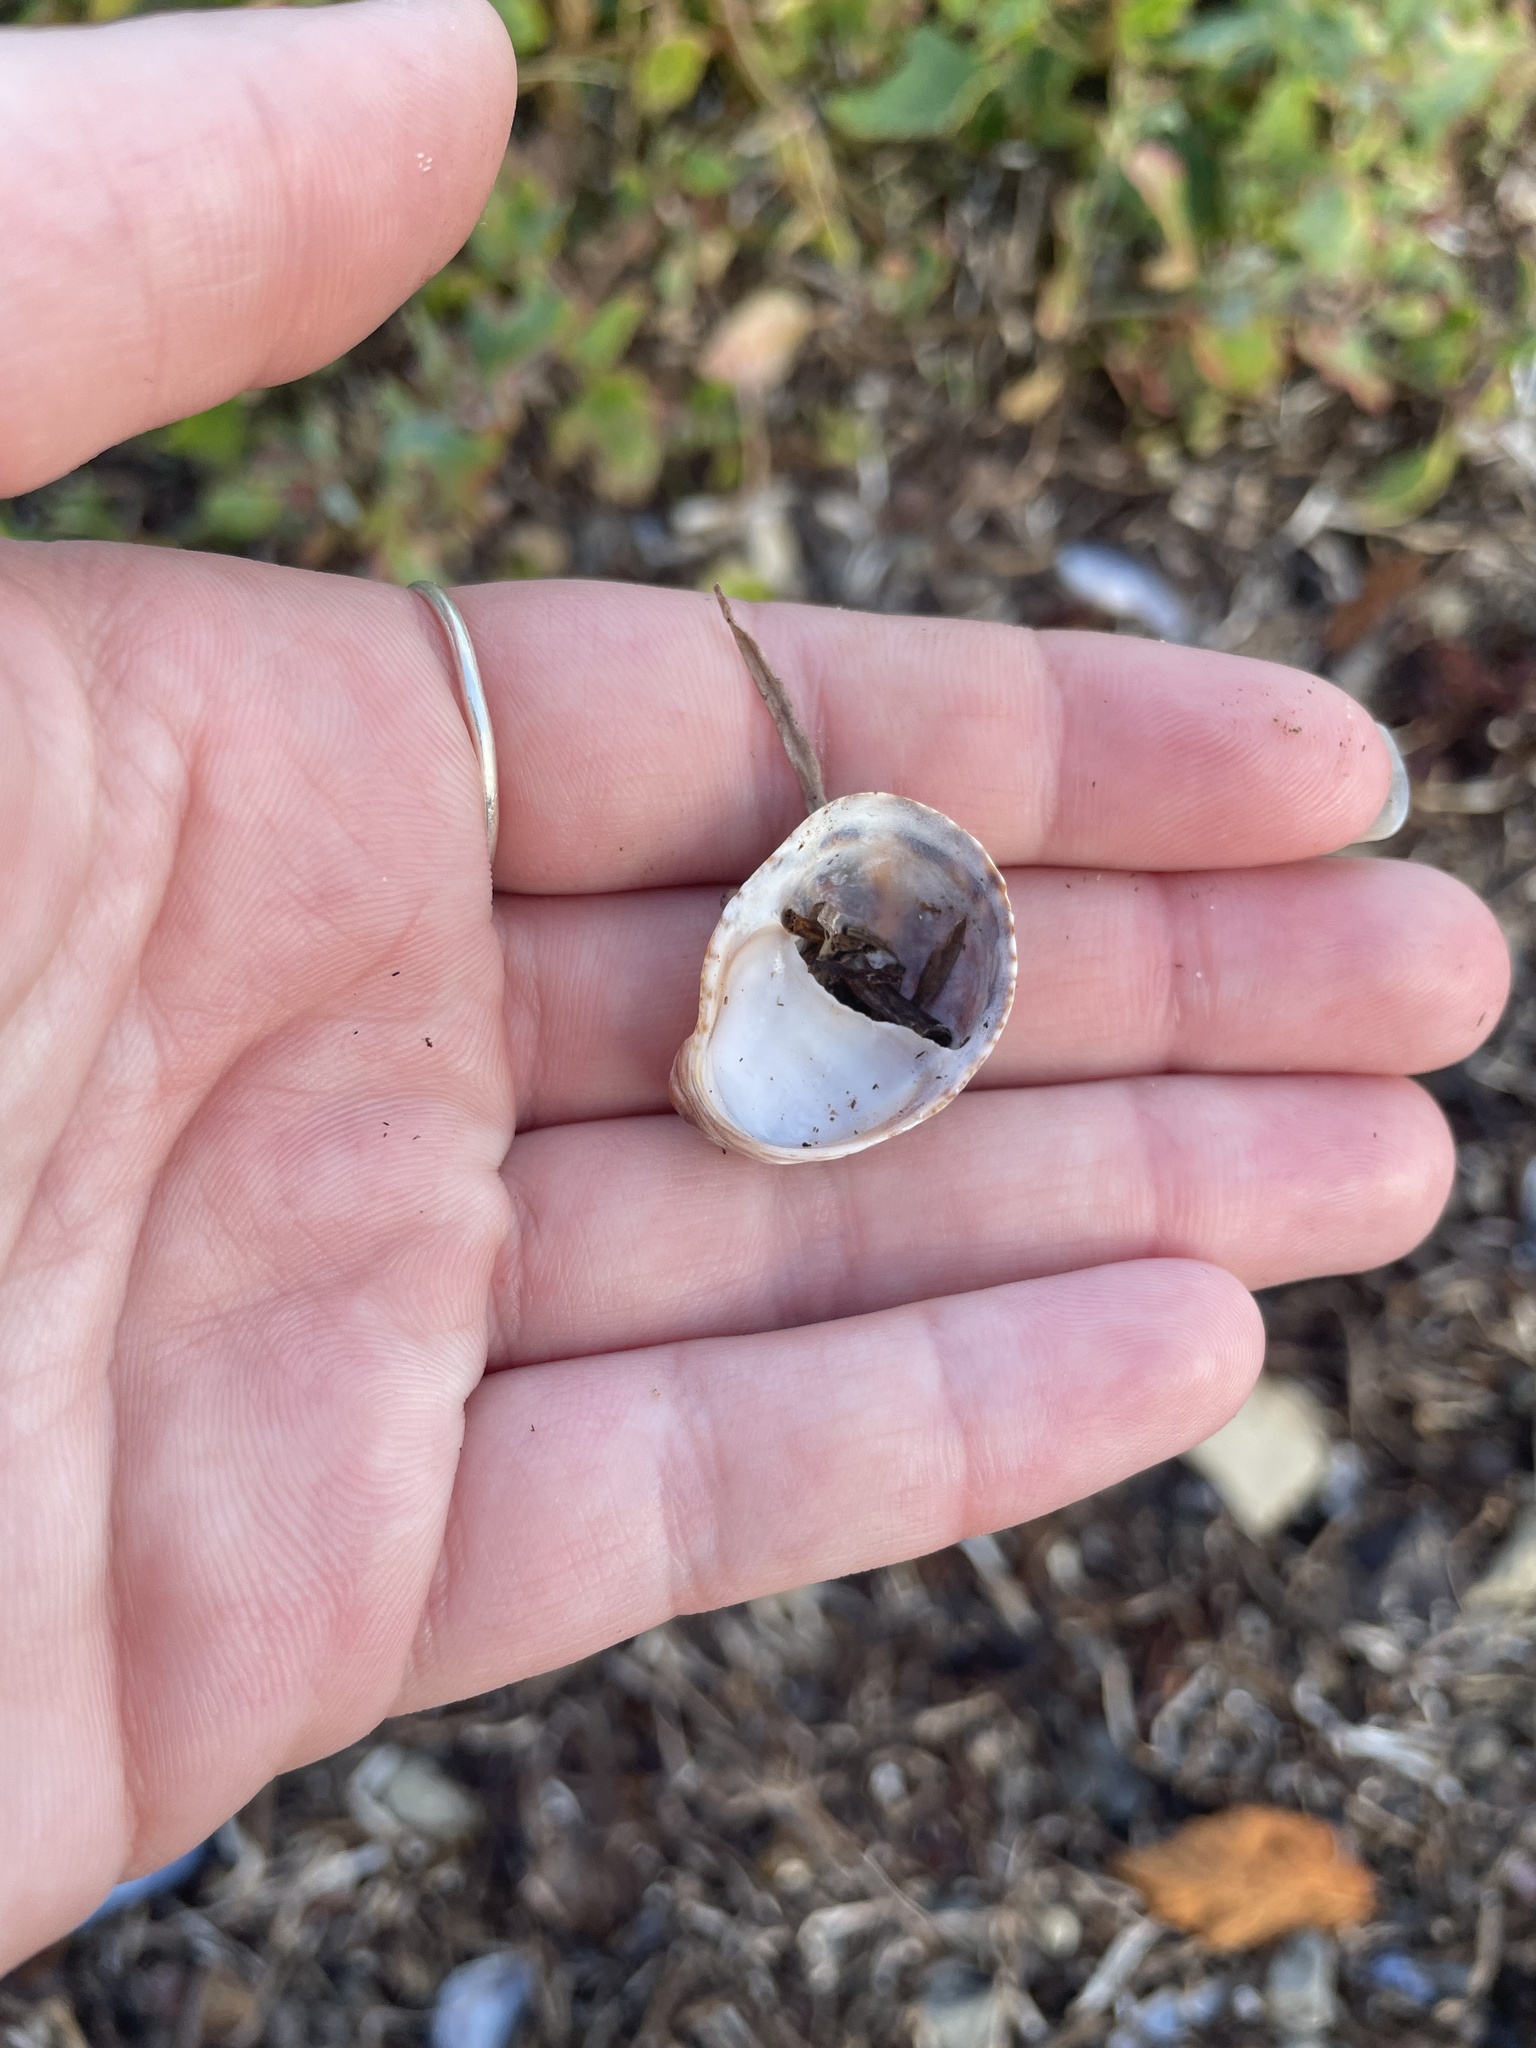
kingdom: Animalia
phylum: Mollusca
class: Gastropoda
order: Littorinimorpha
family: Calyptraeidae
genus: Crepidula
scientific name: Crepidula fornicata
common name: Slipper limpet
